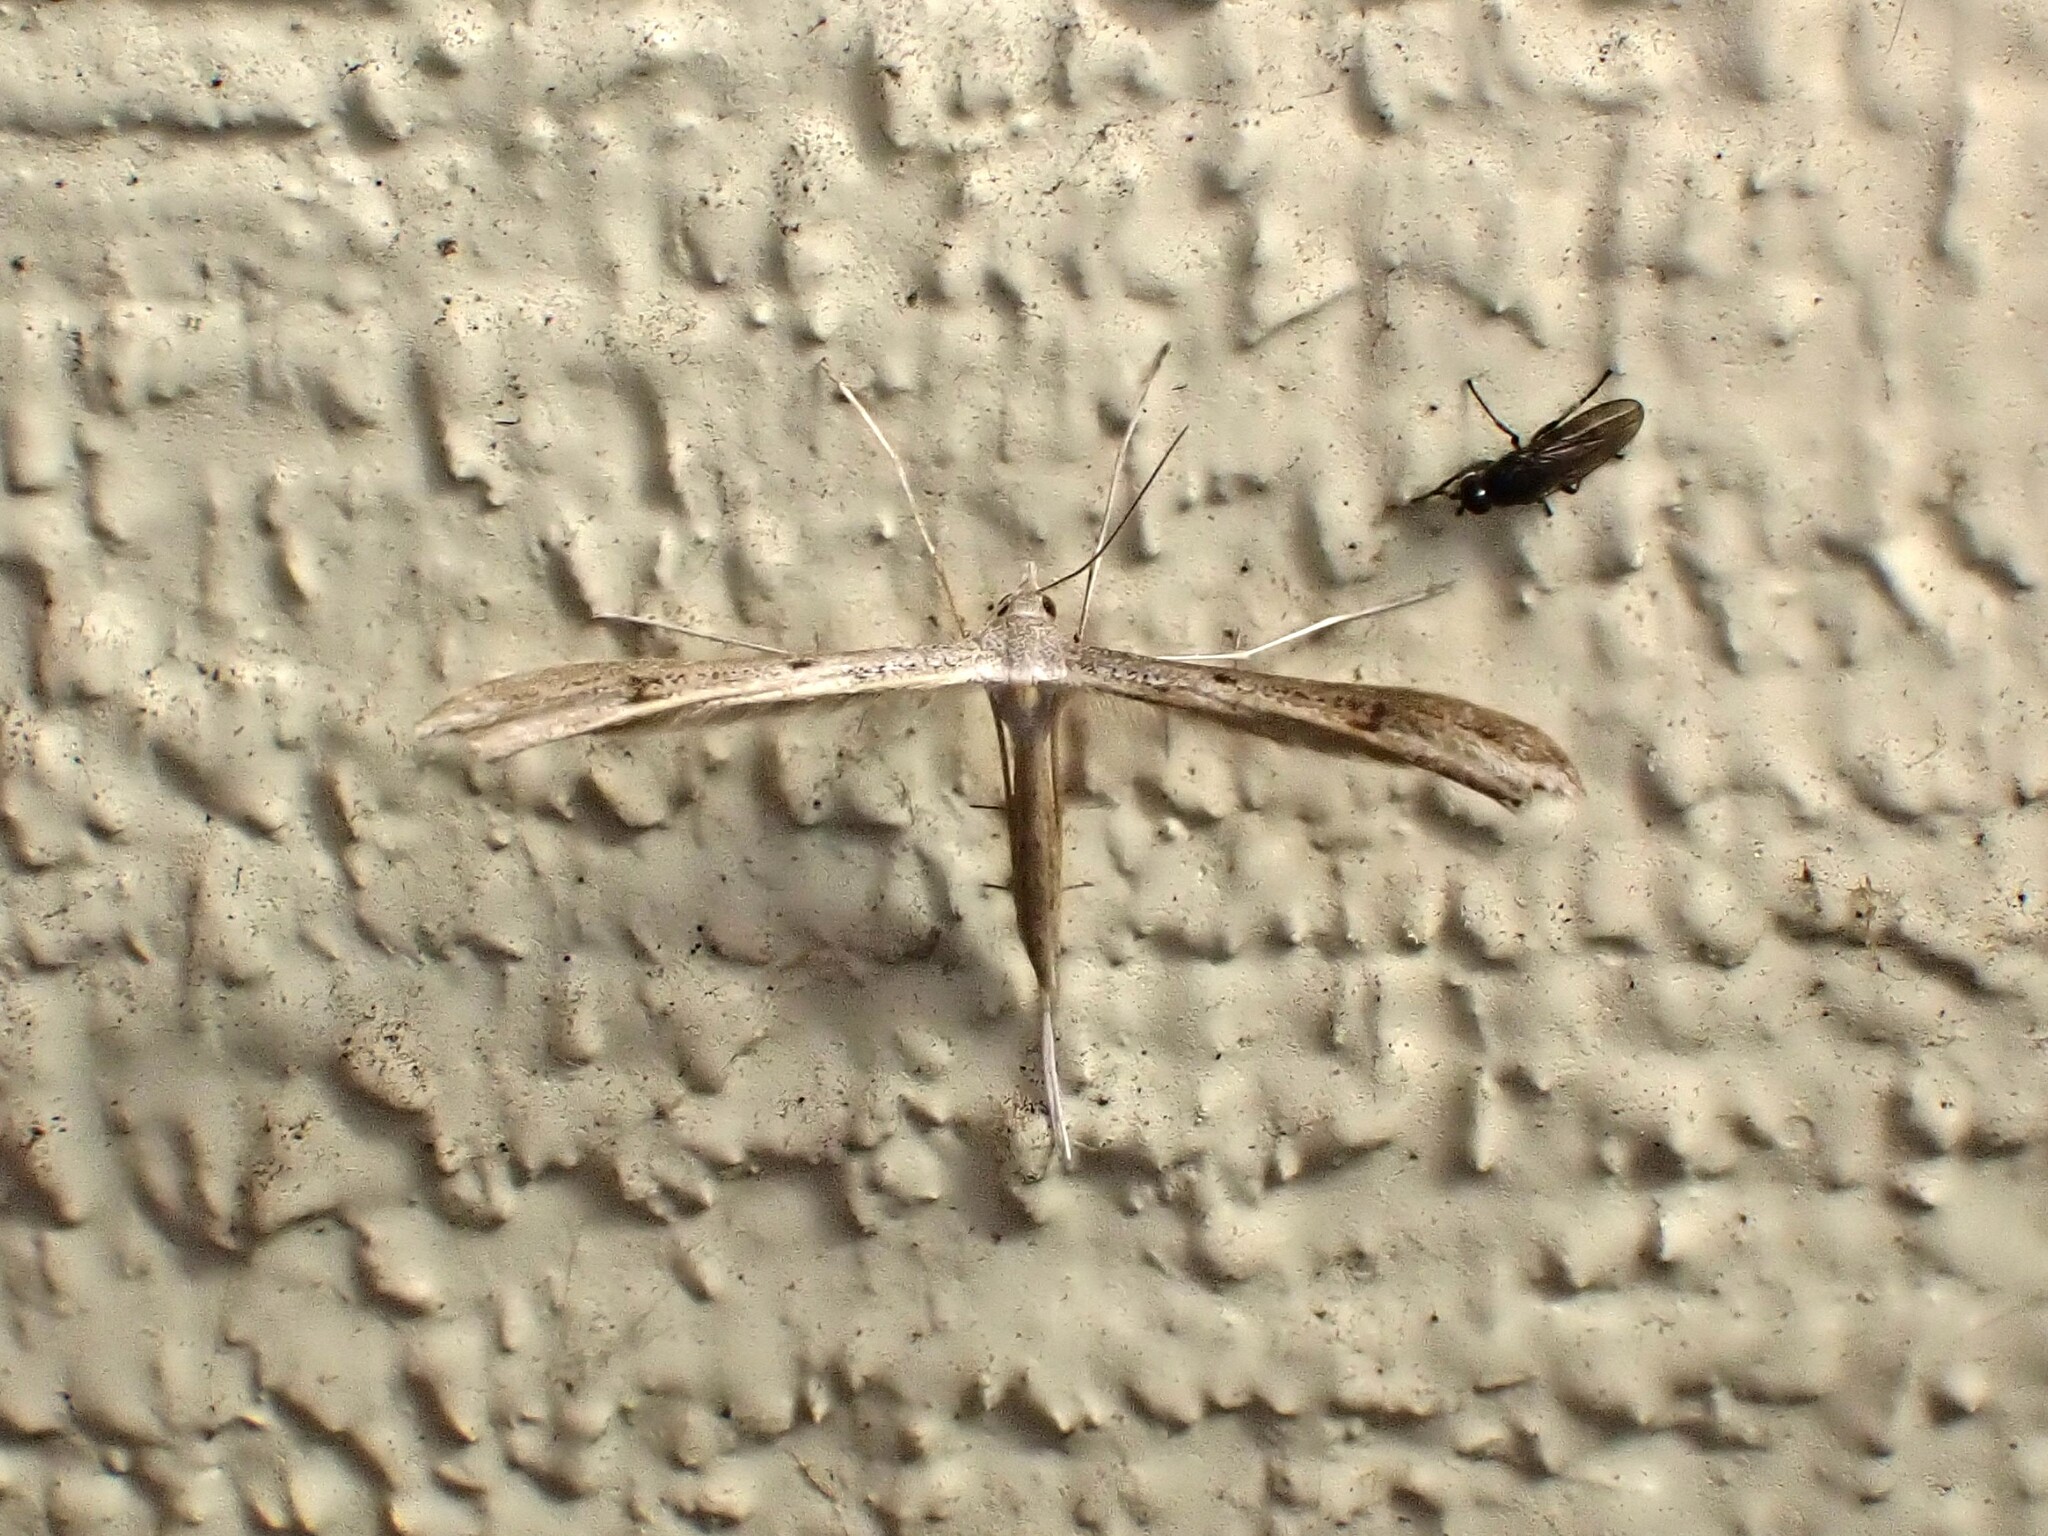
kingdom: Animalia
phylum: Arthropoda
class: Insecta
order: Lepidoptera
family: Pterophoridae
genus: Stenoptilia
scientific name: Stenoptilia zophodactylus
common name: Dowdy plume
